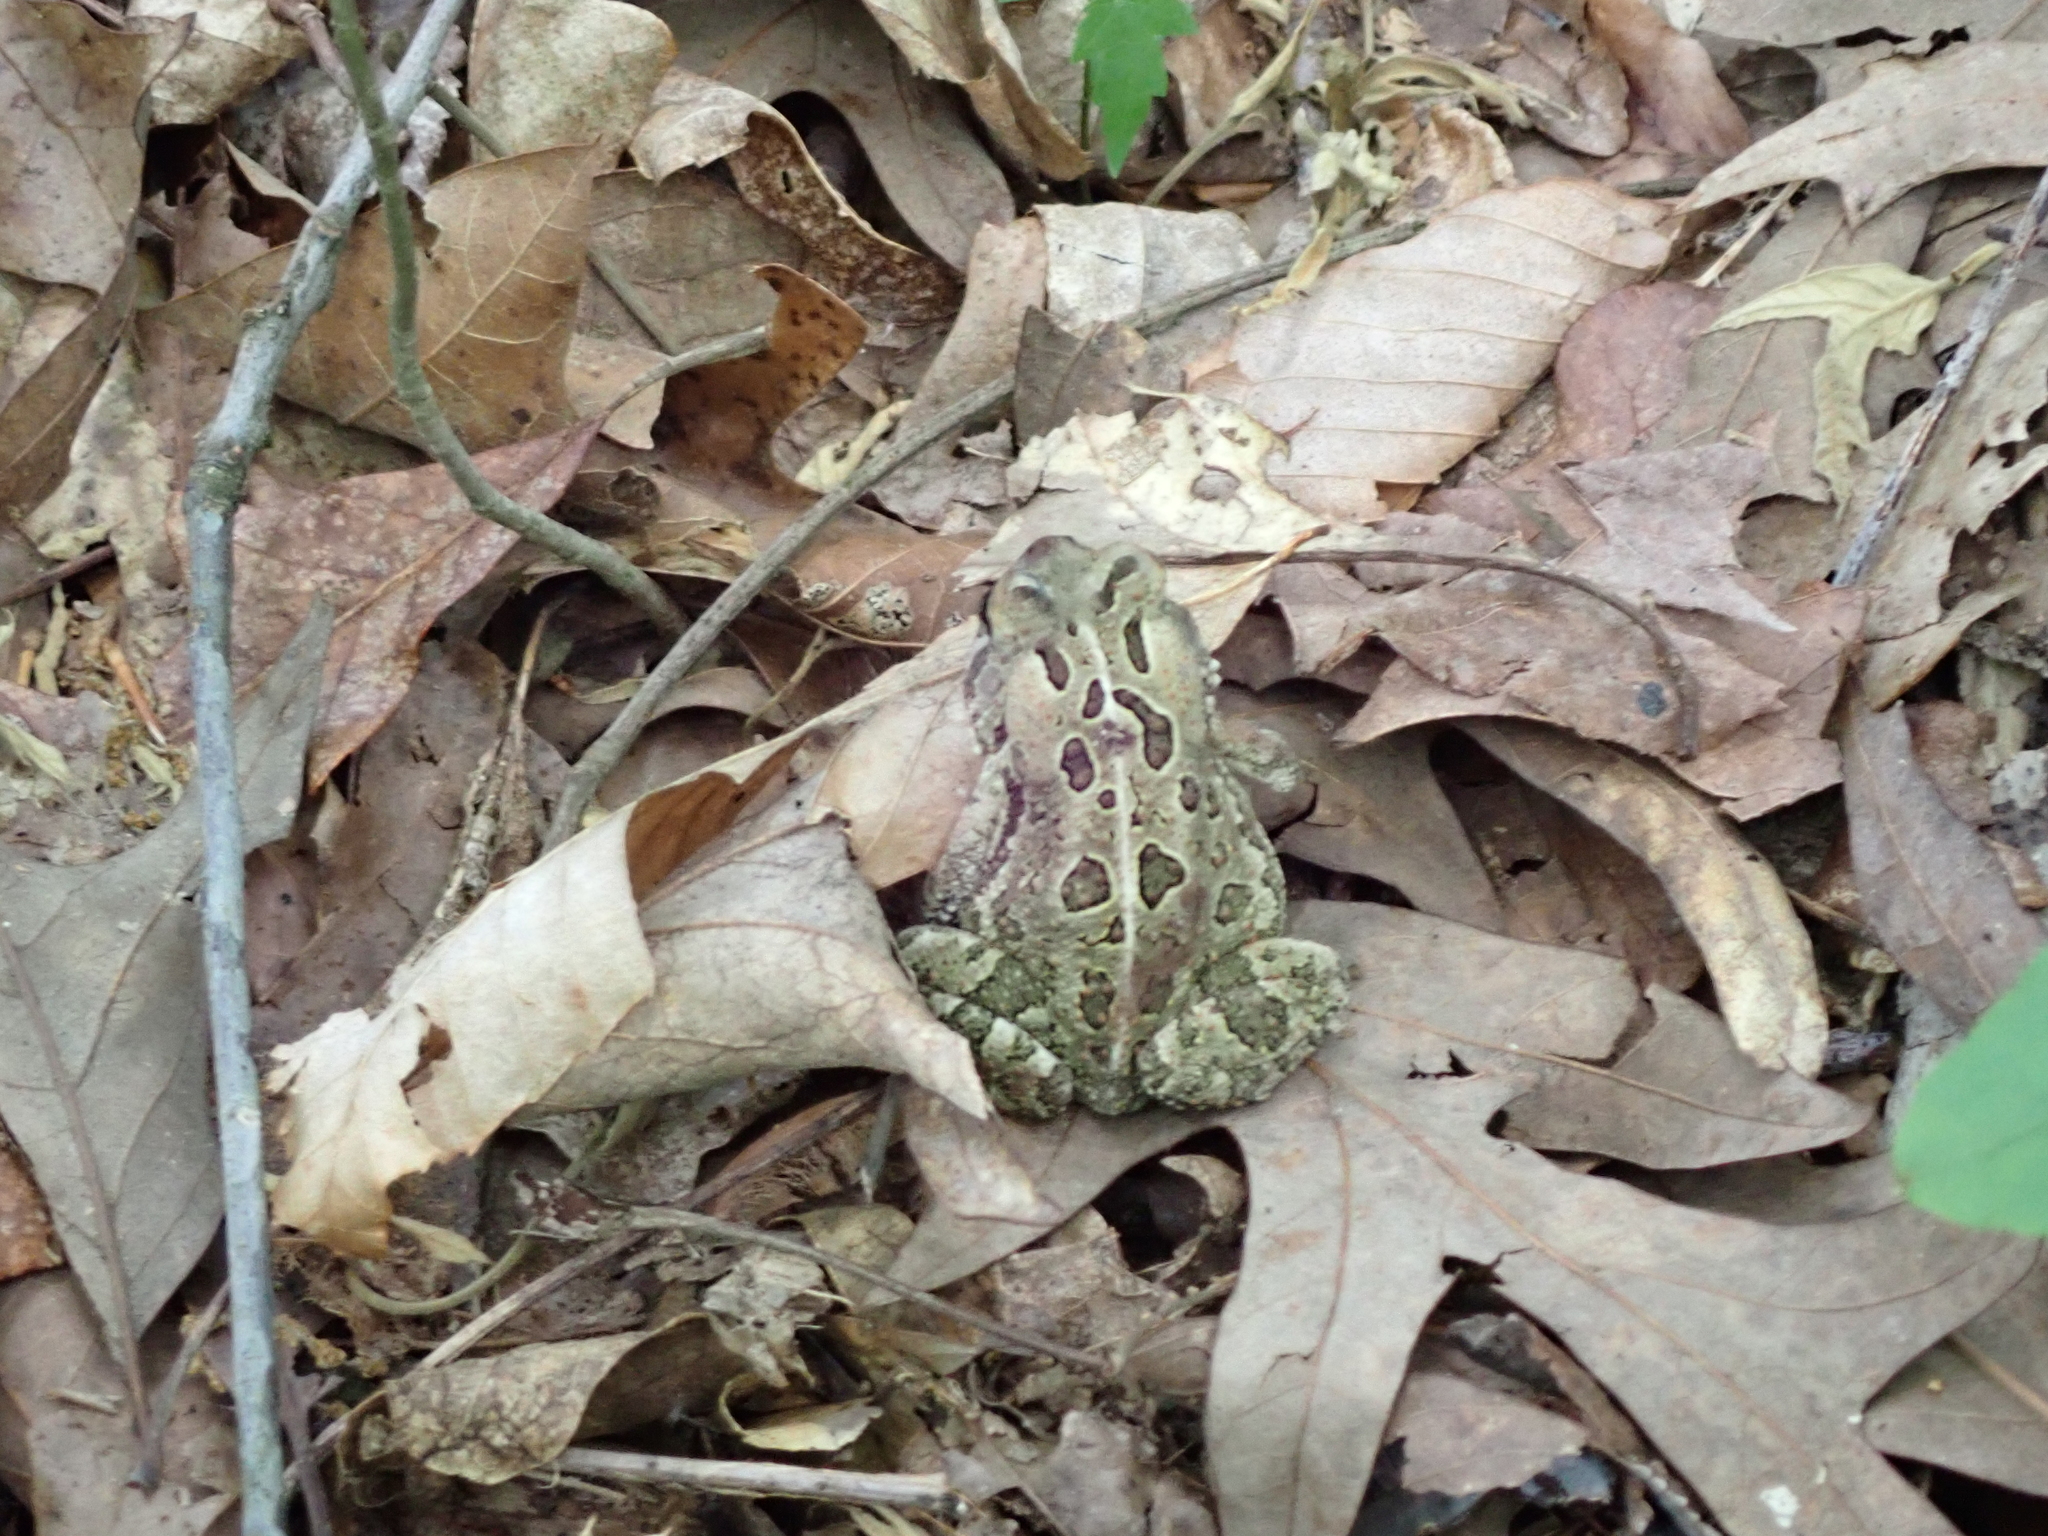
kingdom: Animalia
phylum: Chordata
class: Amphibia
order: Anura
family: Bufonidae
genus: Anaxyrus
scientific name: Anaxyrus fowleri
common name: Fowler's toad
